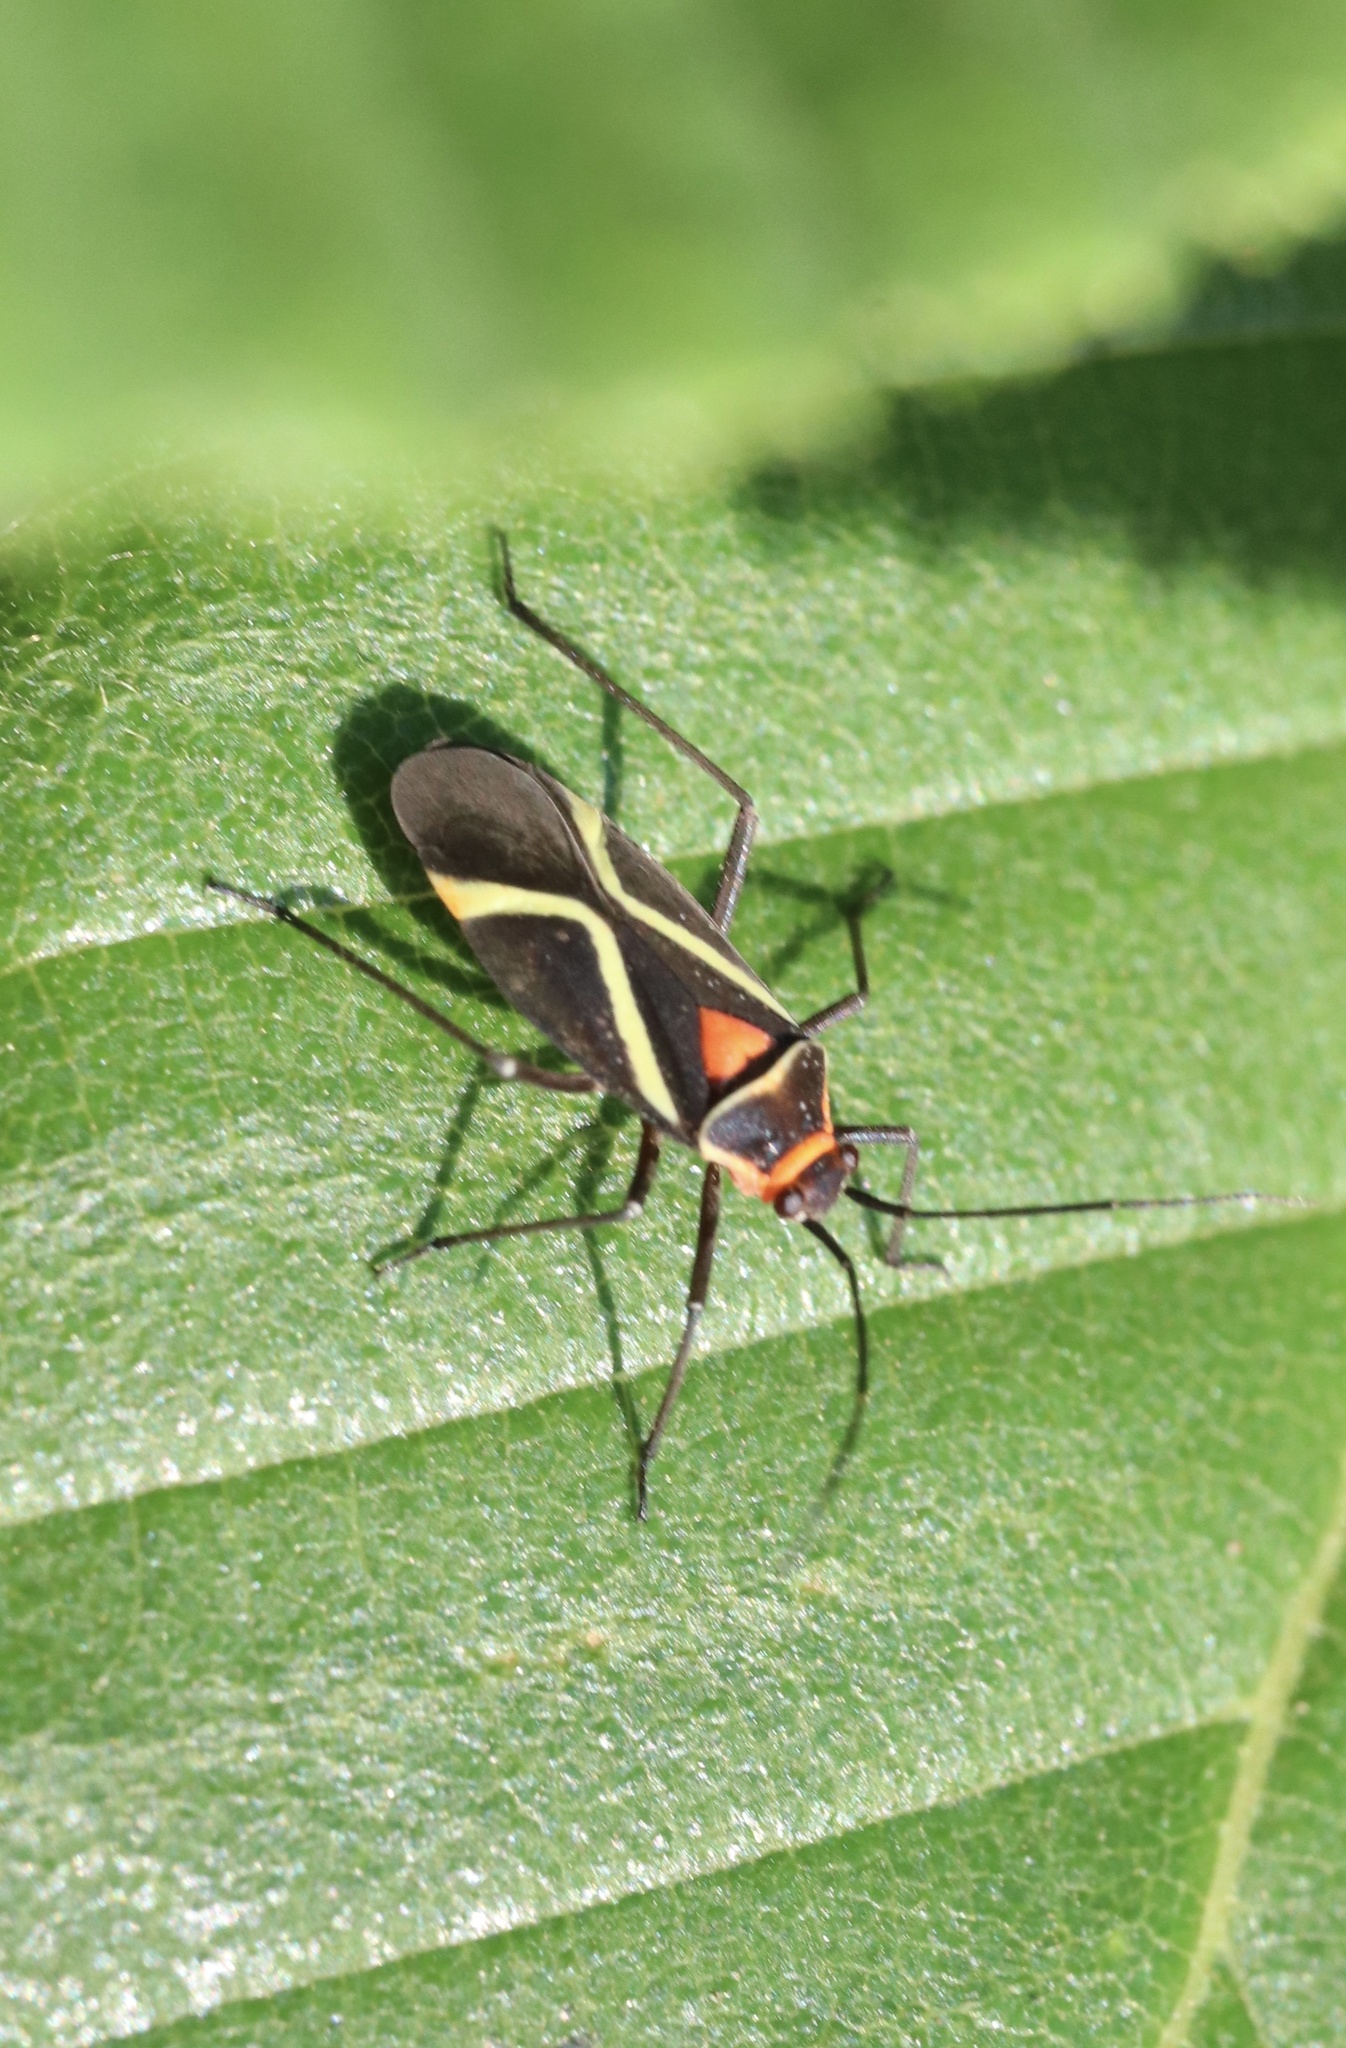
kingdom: Animalia
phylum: Arthropoda
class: Insecta
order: Hemiptera
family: Miridae
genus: Eurylomata
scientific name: Eurylomata picturata
